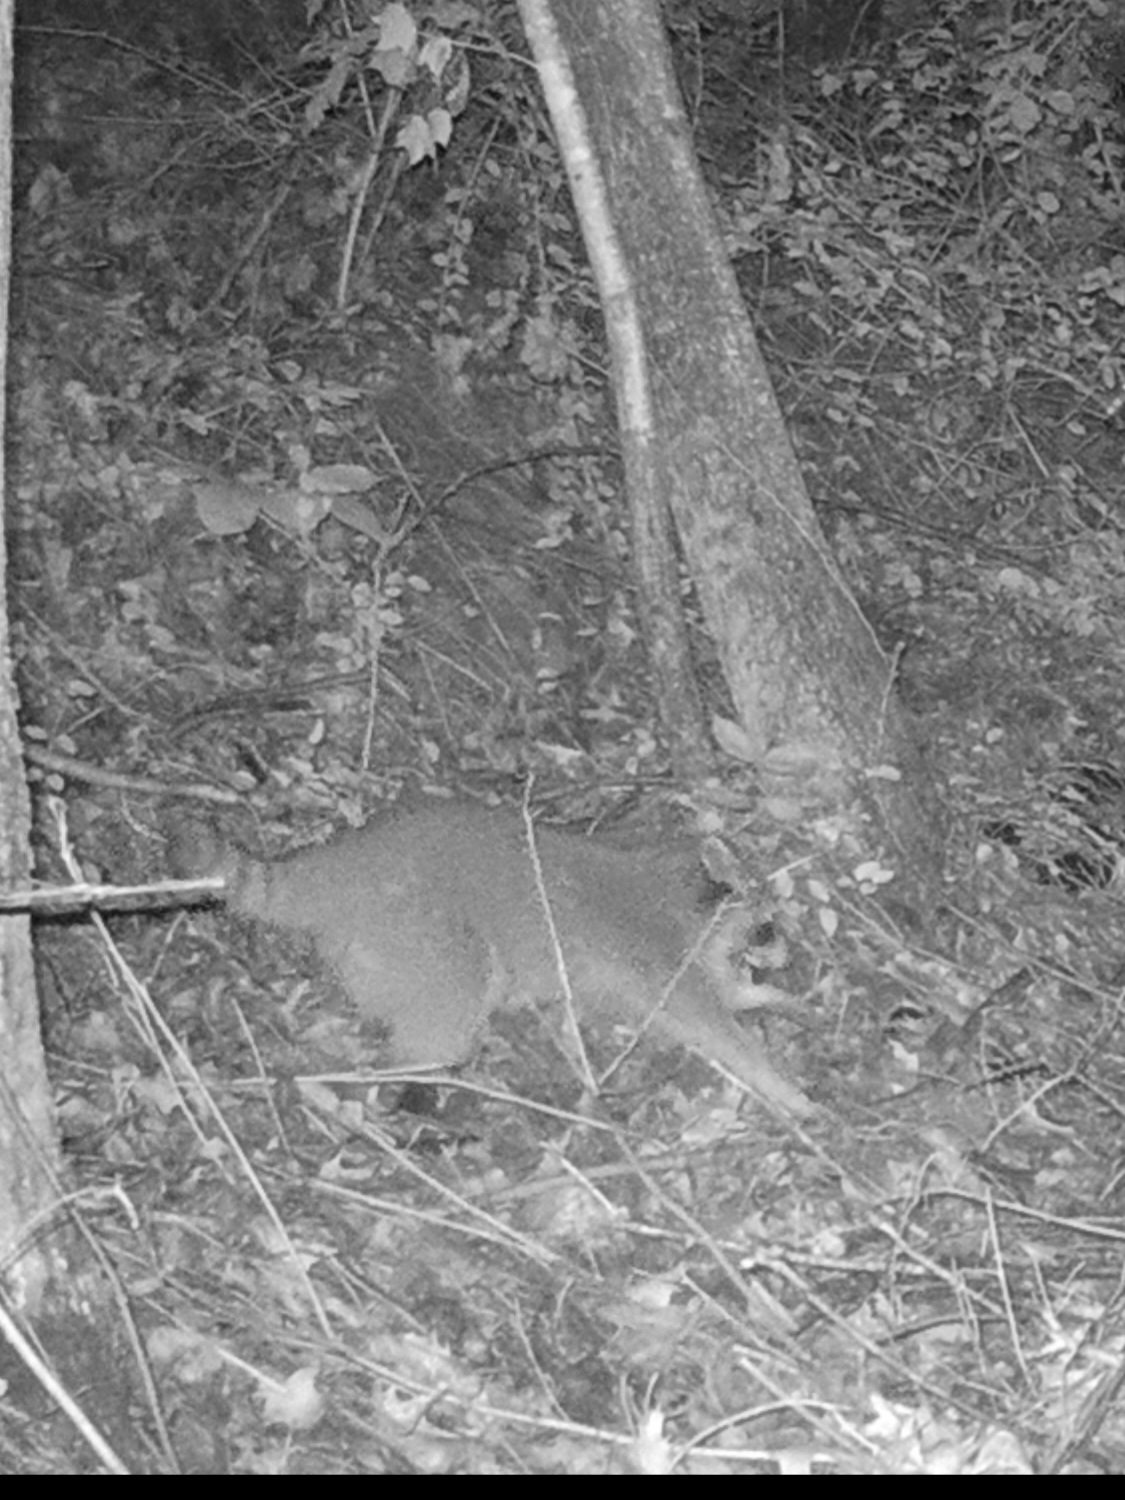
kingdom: Animalia
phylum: Chordata
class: Mammalia
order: Carnivora
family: Procyonidae
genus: Procyon
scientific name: Procyon lotor
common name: Raccoon
